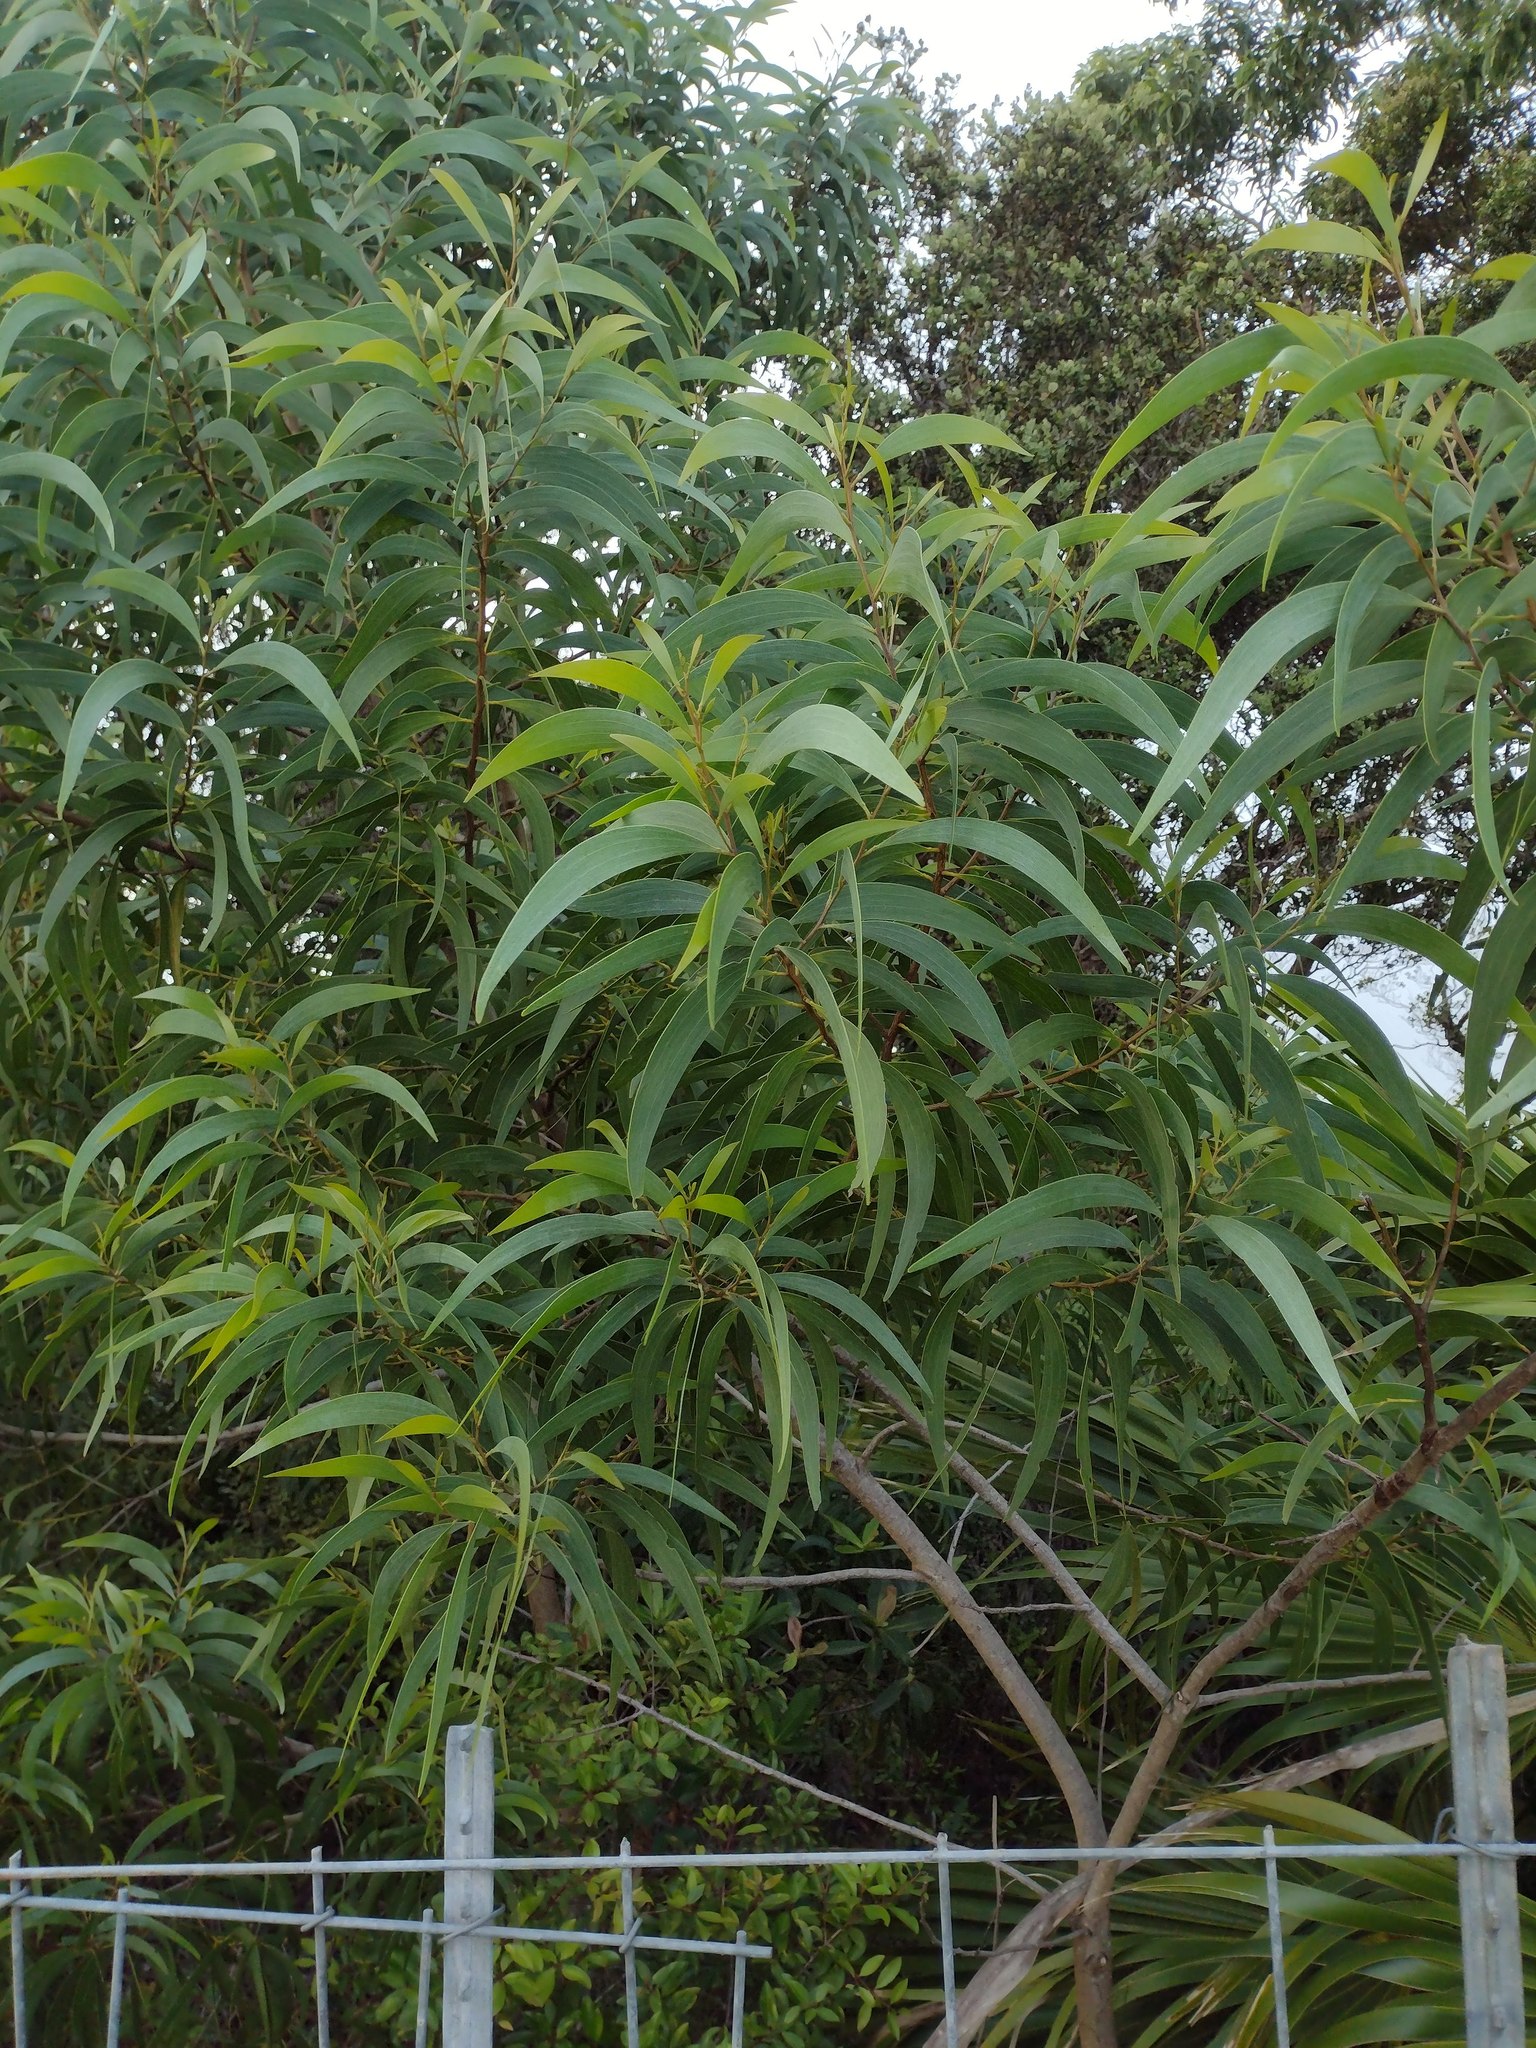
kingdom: Plantae
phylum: Tracheophyta
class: Magnoliopsida
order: Fabales
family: Fabaceae
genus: Acacia
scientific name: Acacia koa
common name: Gray koa
